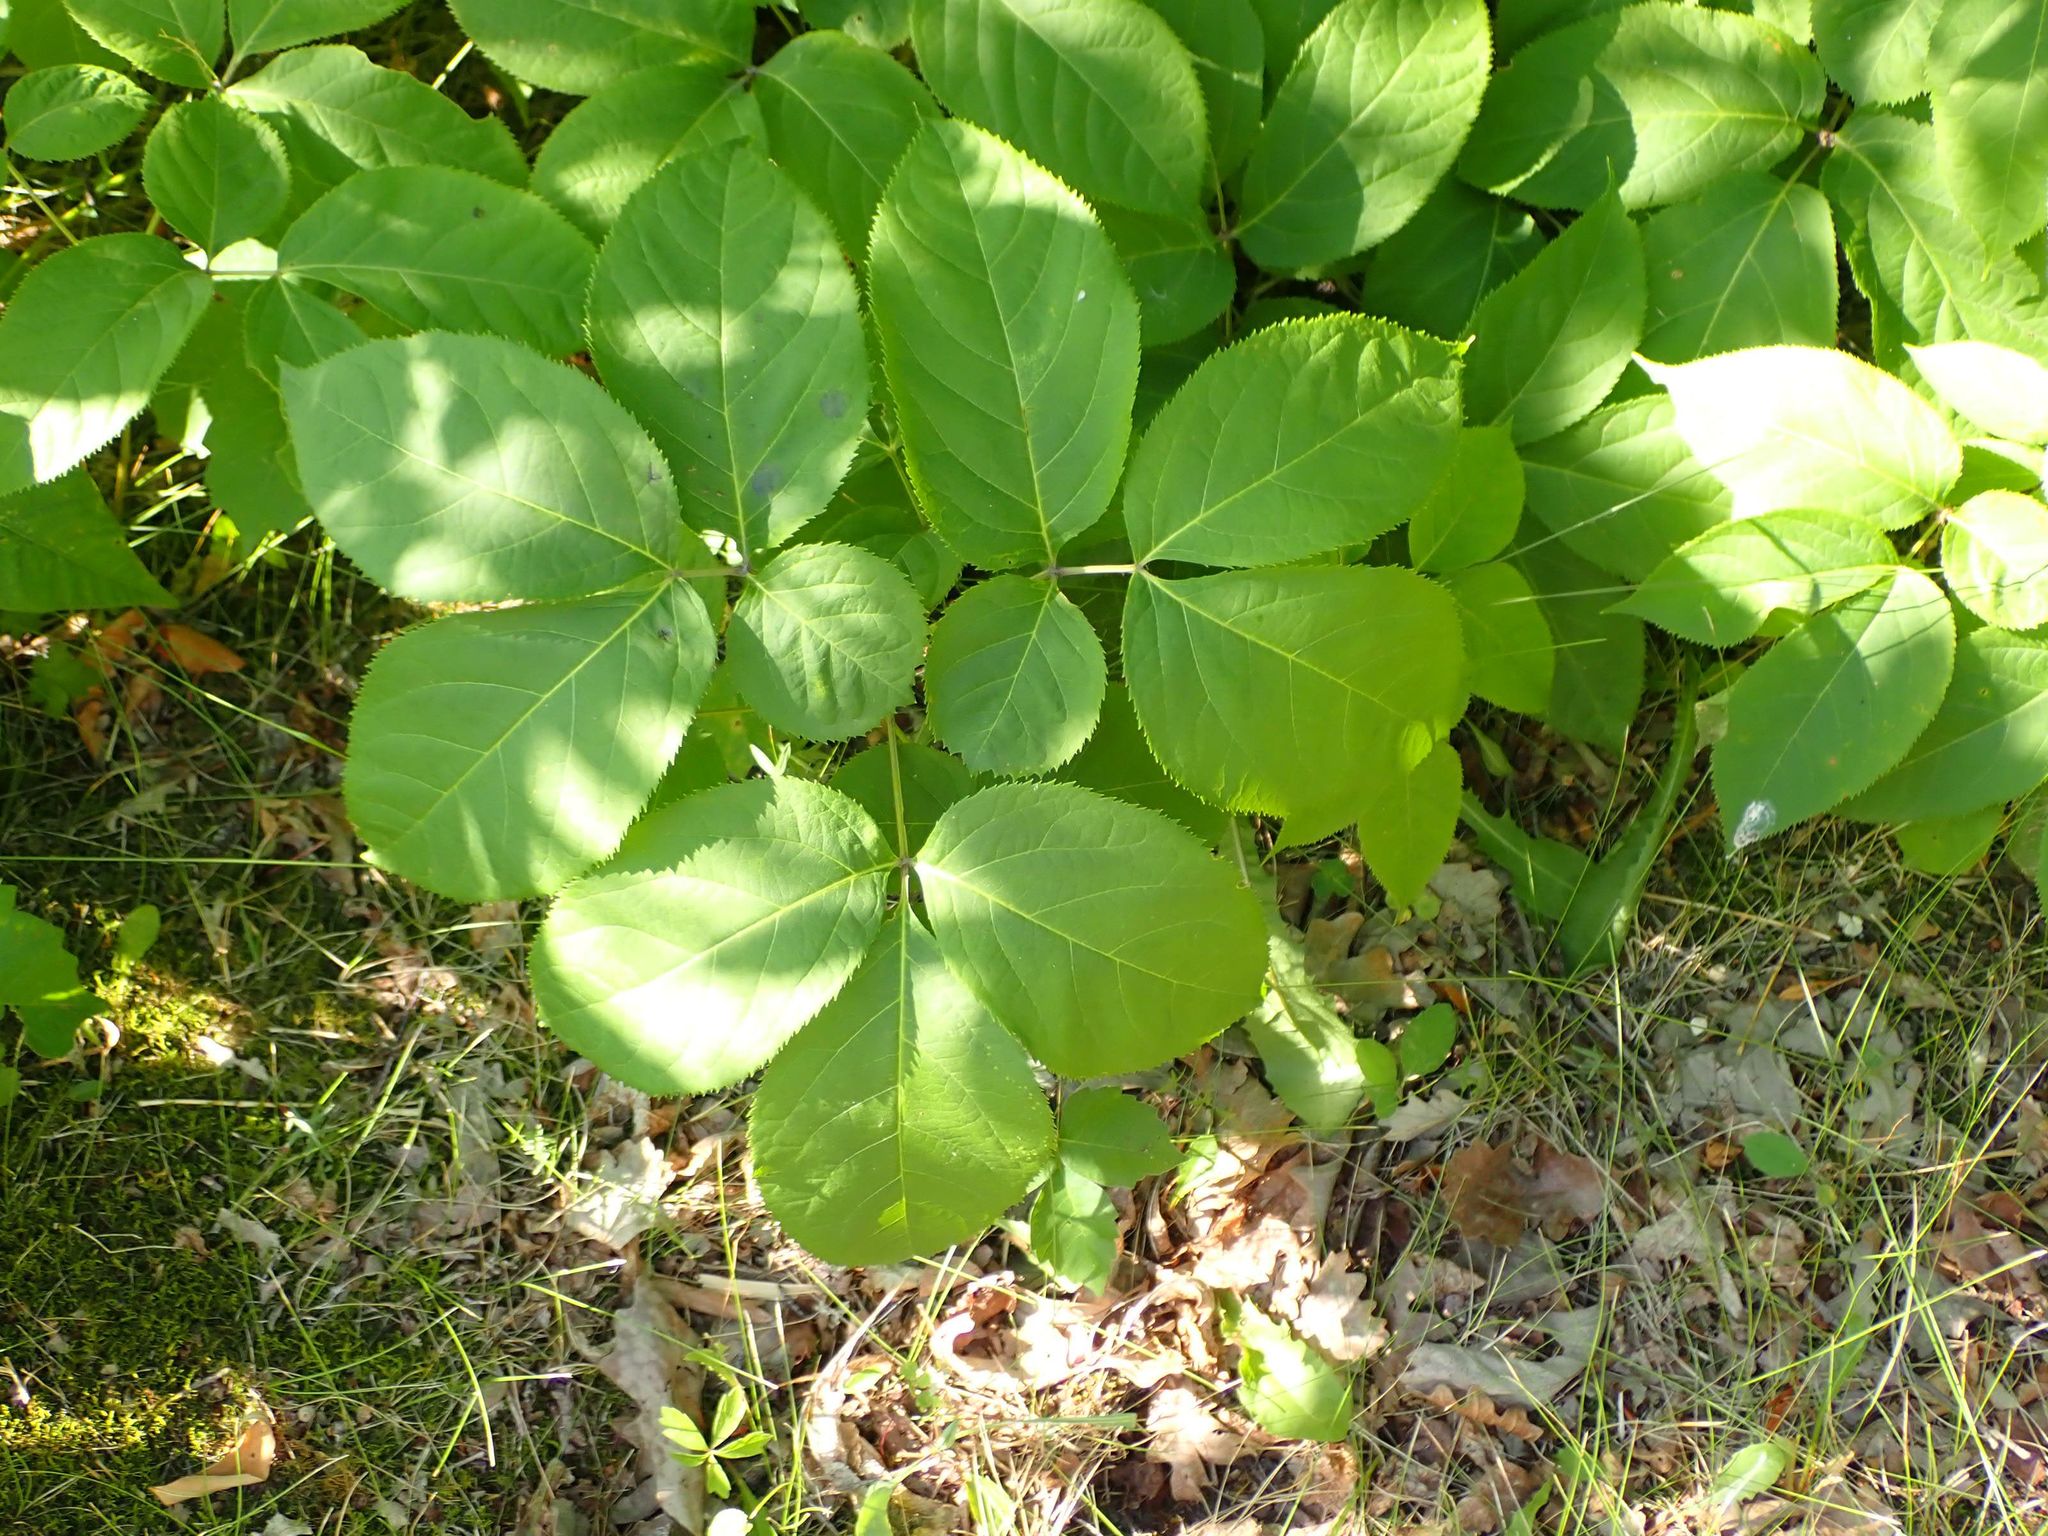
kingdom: Plantae
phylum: Tracheophyta
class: Magnoliopsida
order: Apiales
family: Araliaceae
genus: Aralia
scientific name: Aralia nudicaulis
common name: Wild sarsaparilla
